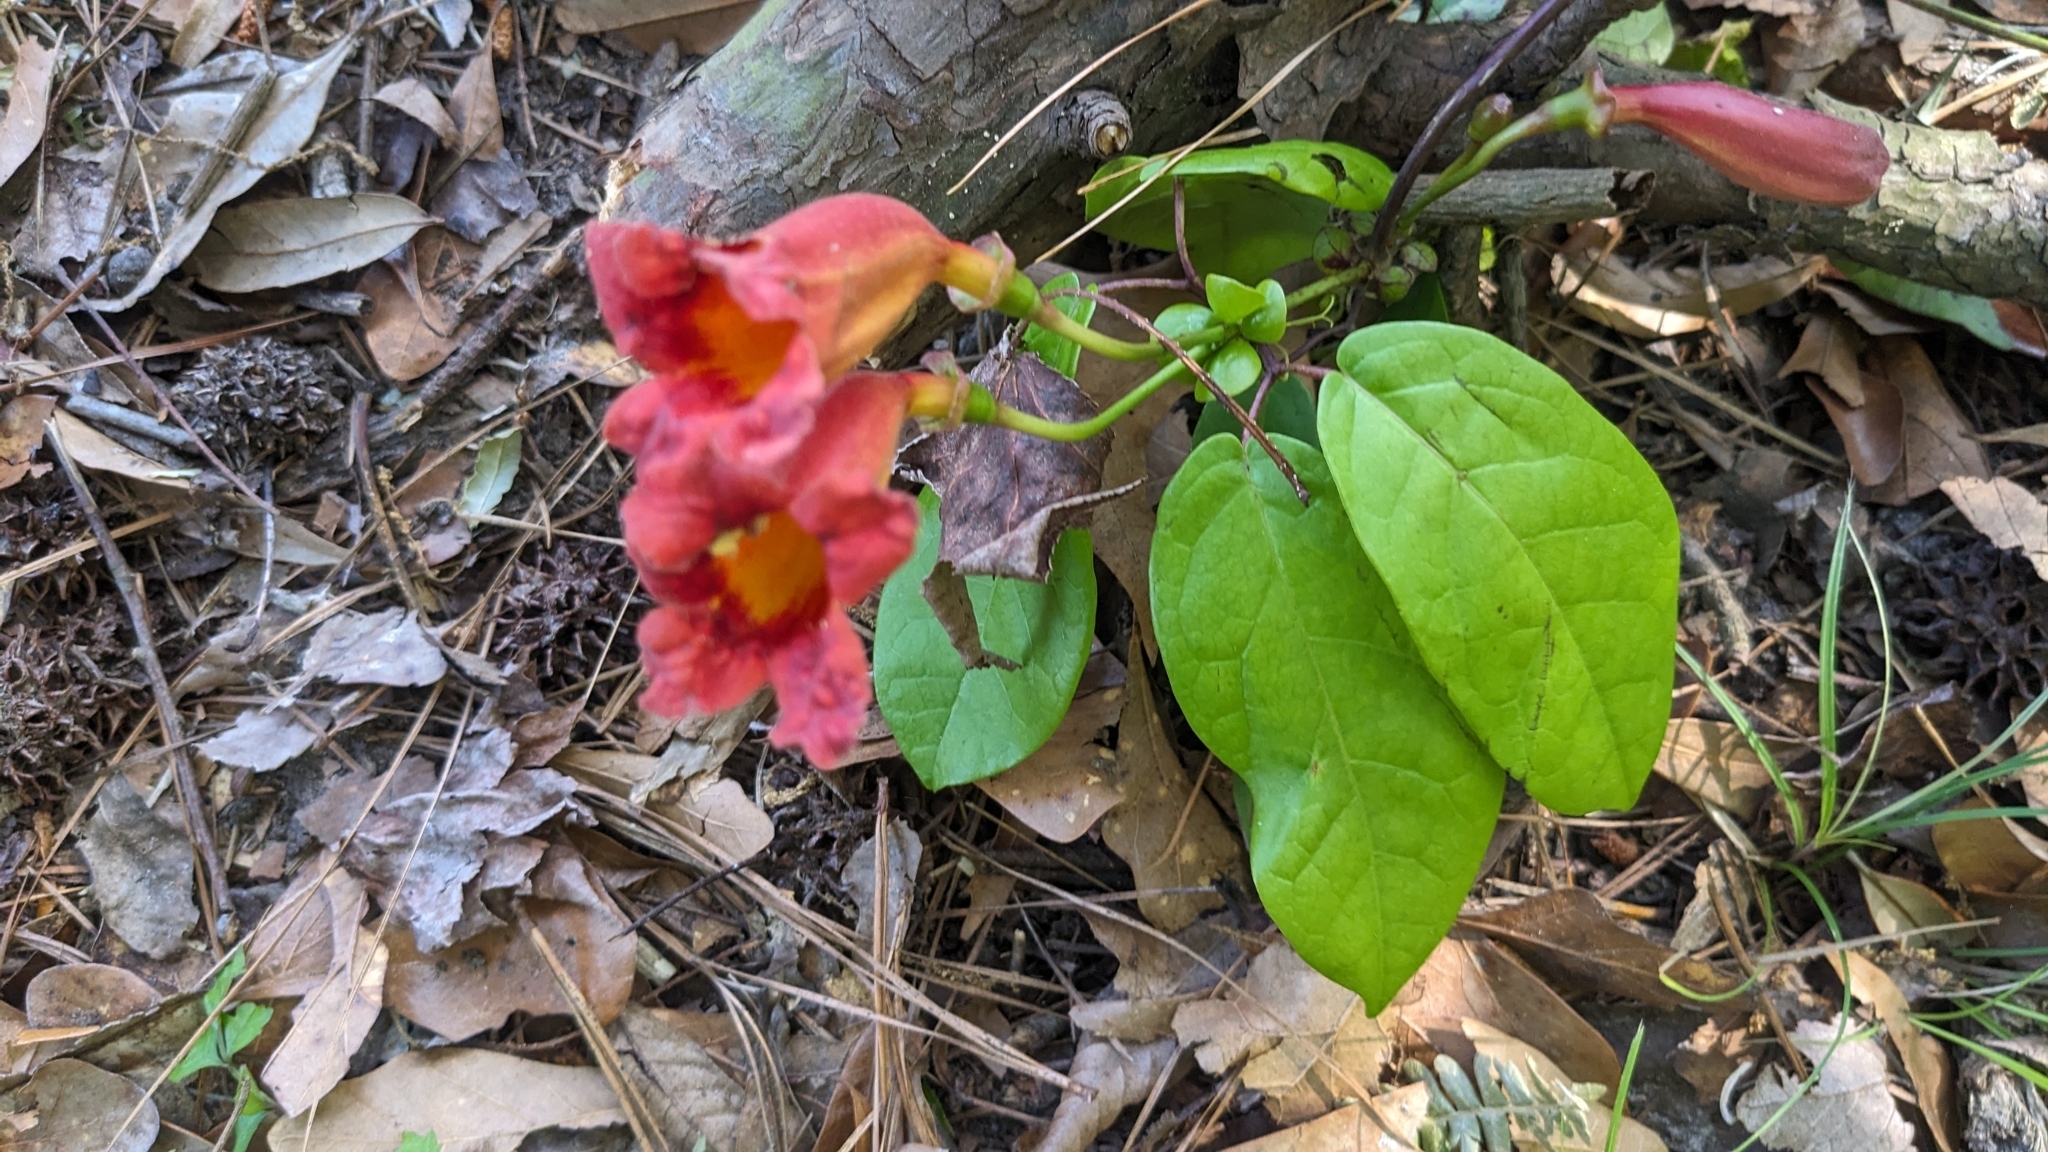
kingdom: Plantae
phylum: Tracheophyta
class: Magnoliopsida
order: Lamiales
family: Bignoniaceae
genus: Bignonia
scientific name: Bignonia capreolata
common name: Crossvine
